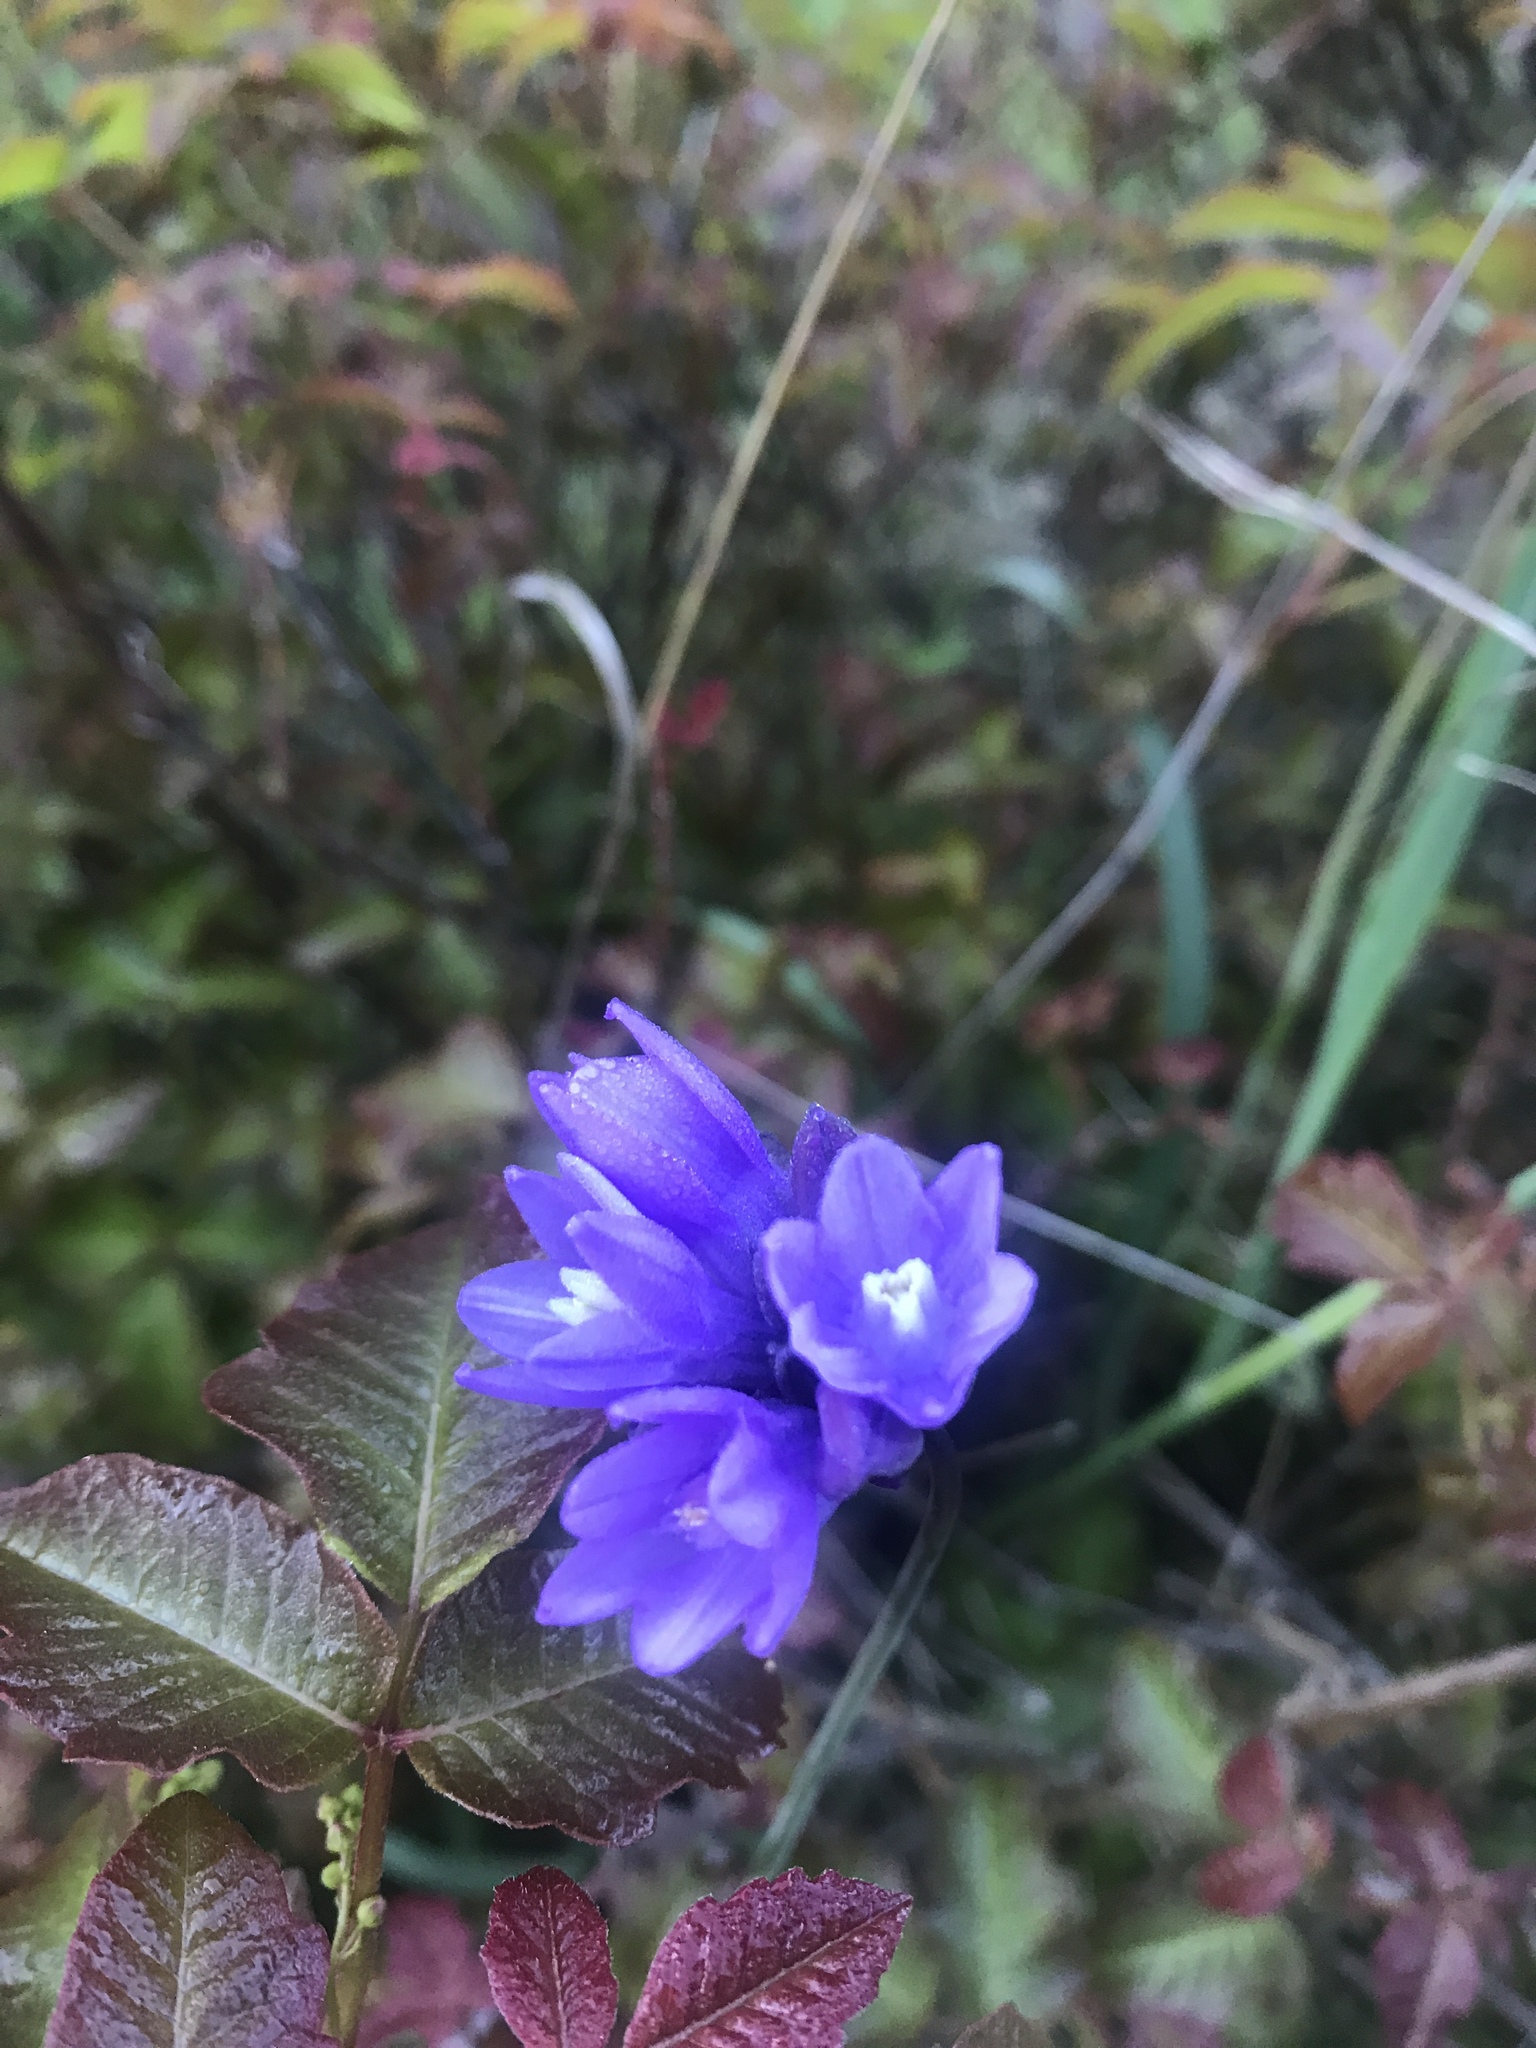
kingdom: Plantae
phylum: Tracheophyta
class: Liliopsida
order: Asparagales
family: Asparagaceae
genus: Dipterostemon
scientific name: Dipterostemon capitatus
